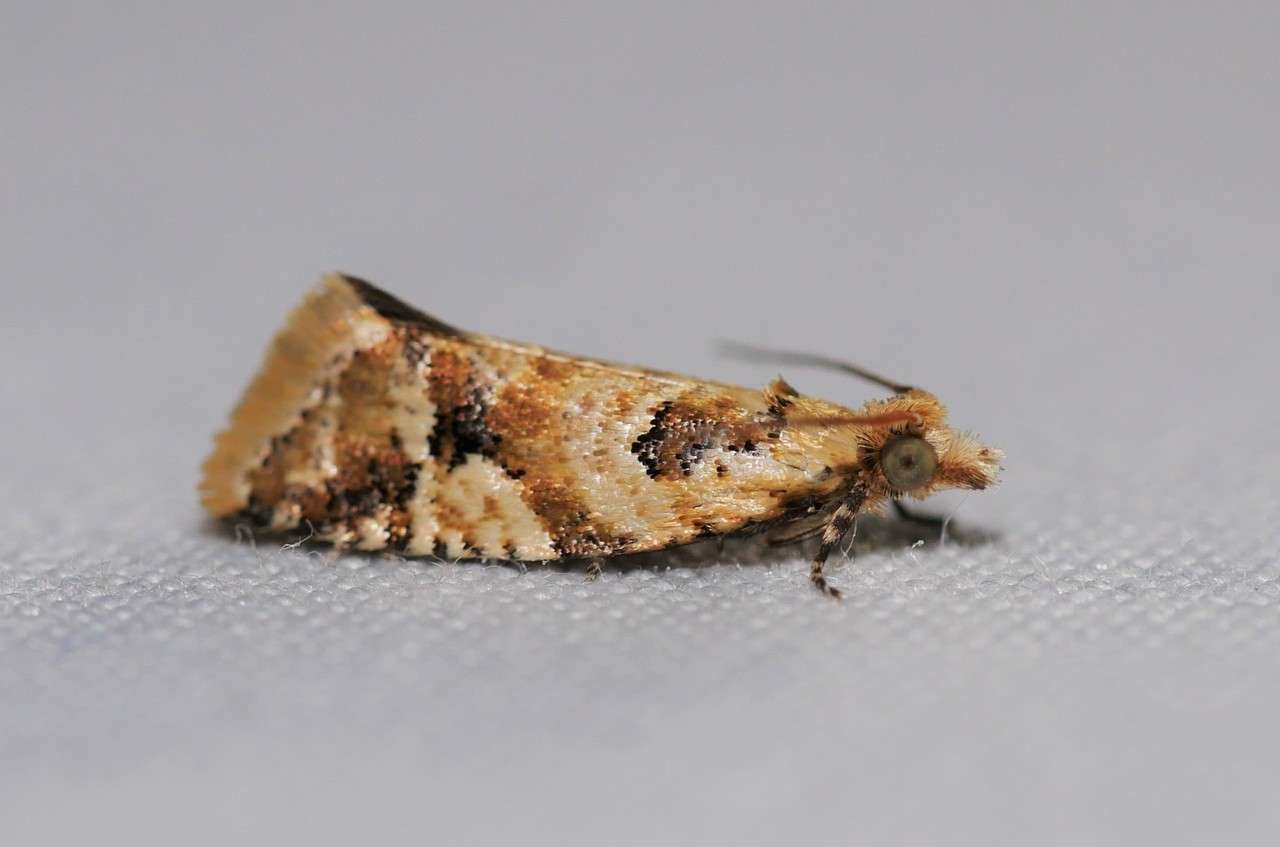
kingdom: Animalia
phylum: Arthropoda
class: Insecta
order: Lepidoptera
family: Tortricidae
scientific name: Tortricidae
